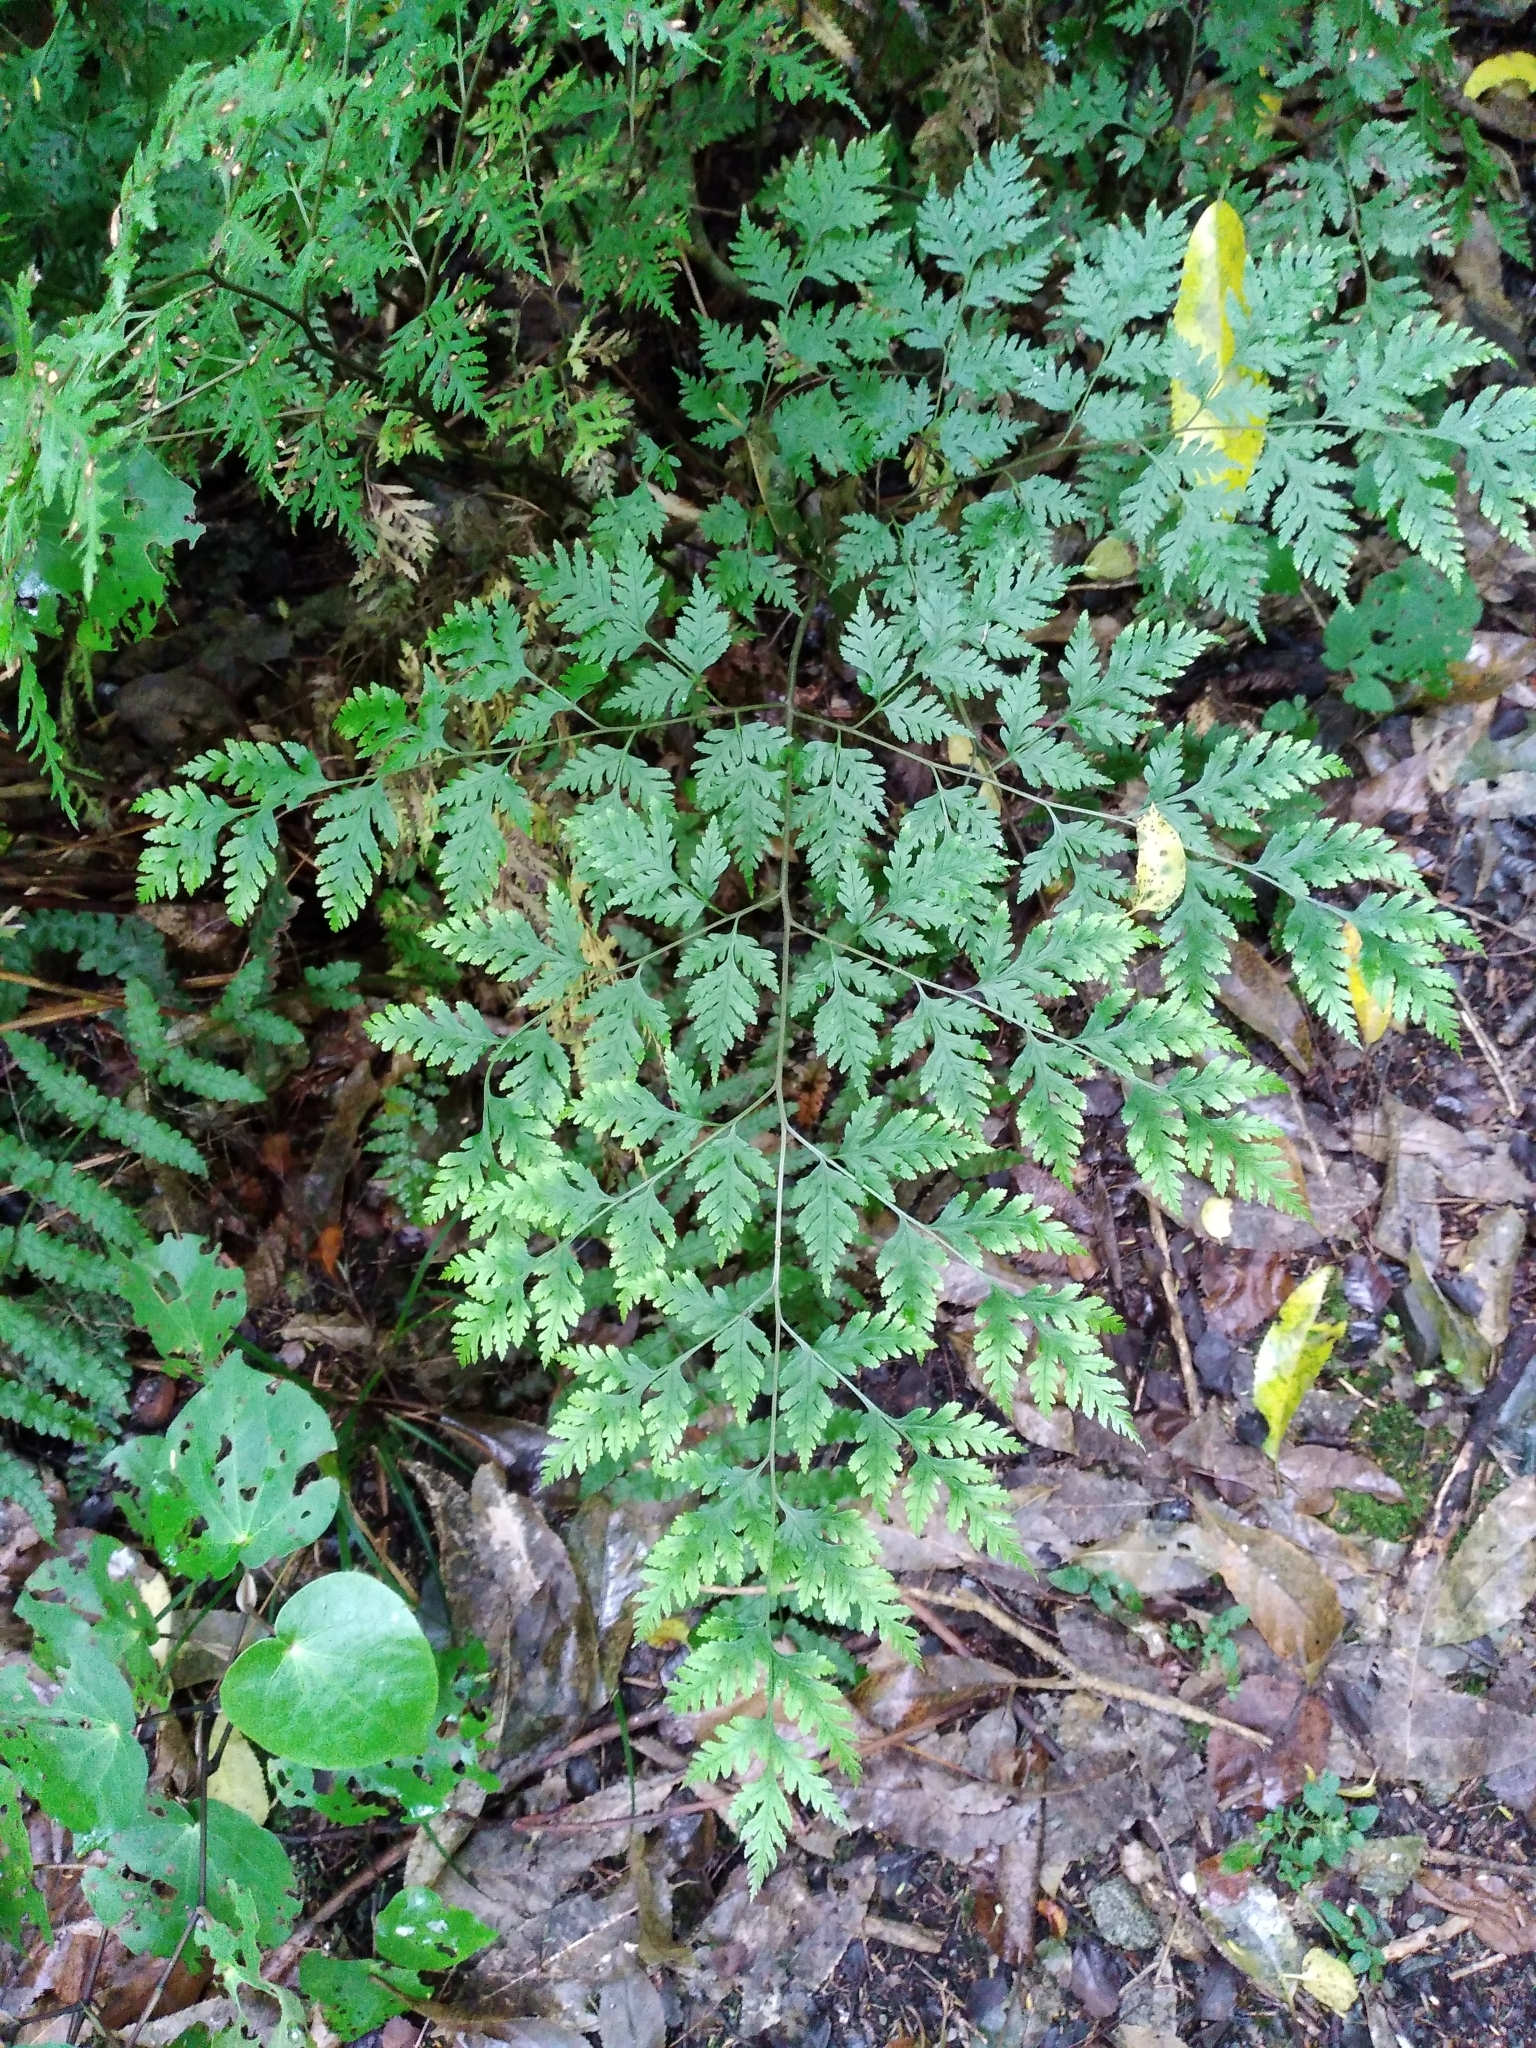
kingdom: Plantae
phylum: Tracheophyta
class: Polypodiopsida
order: Polypodiales
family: Pteridaceae
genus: Pteris
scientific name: Pteris macilenta
